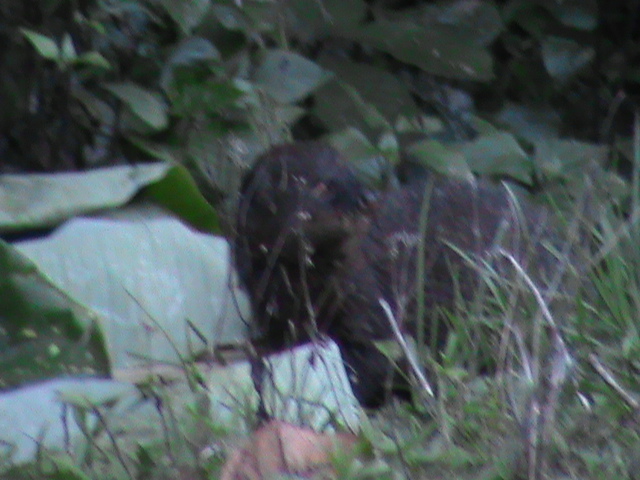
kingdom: Animalia
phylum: Chordata
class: Mammalia
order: Carnivora
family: Herpestidae
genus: Herpestes
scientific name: Herpestes fuscus
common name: Indian brown mongoose
